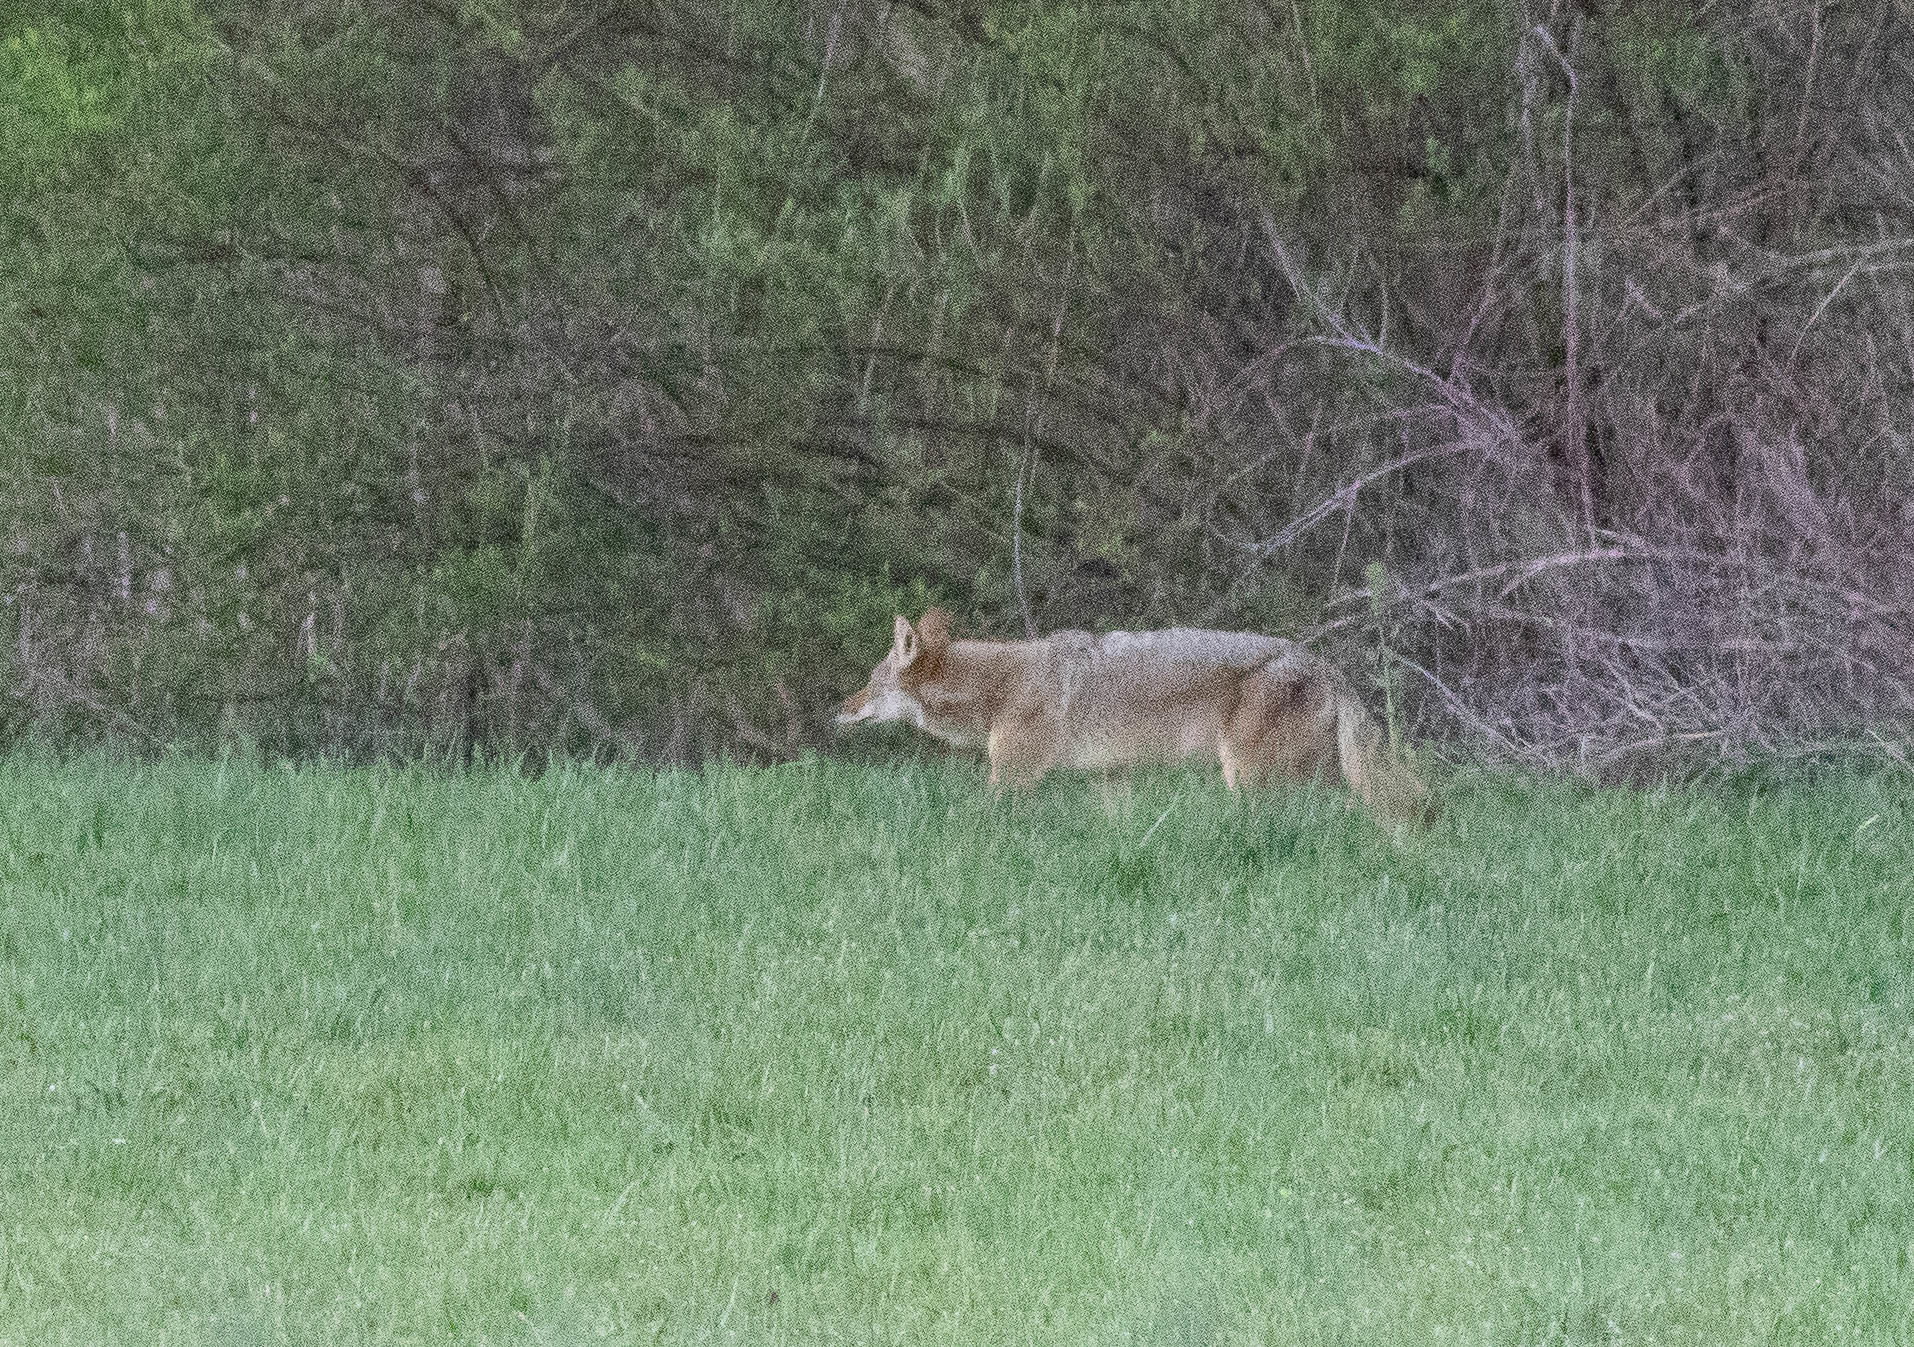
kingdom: Animalia
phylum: Chordata
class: Mammalia
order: Carnivora
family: Canidae
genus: Canis
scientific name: Canis latrans
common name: Coyote
